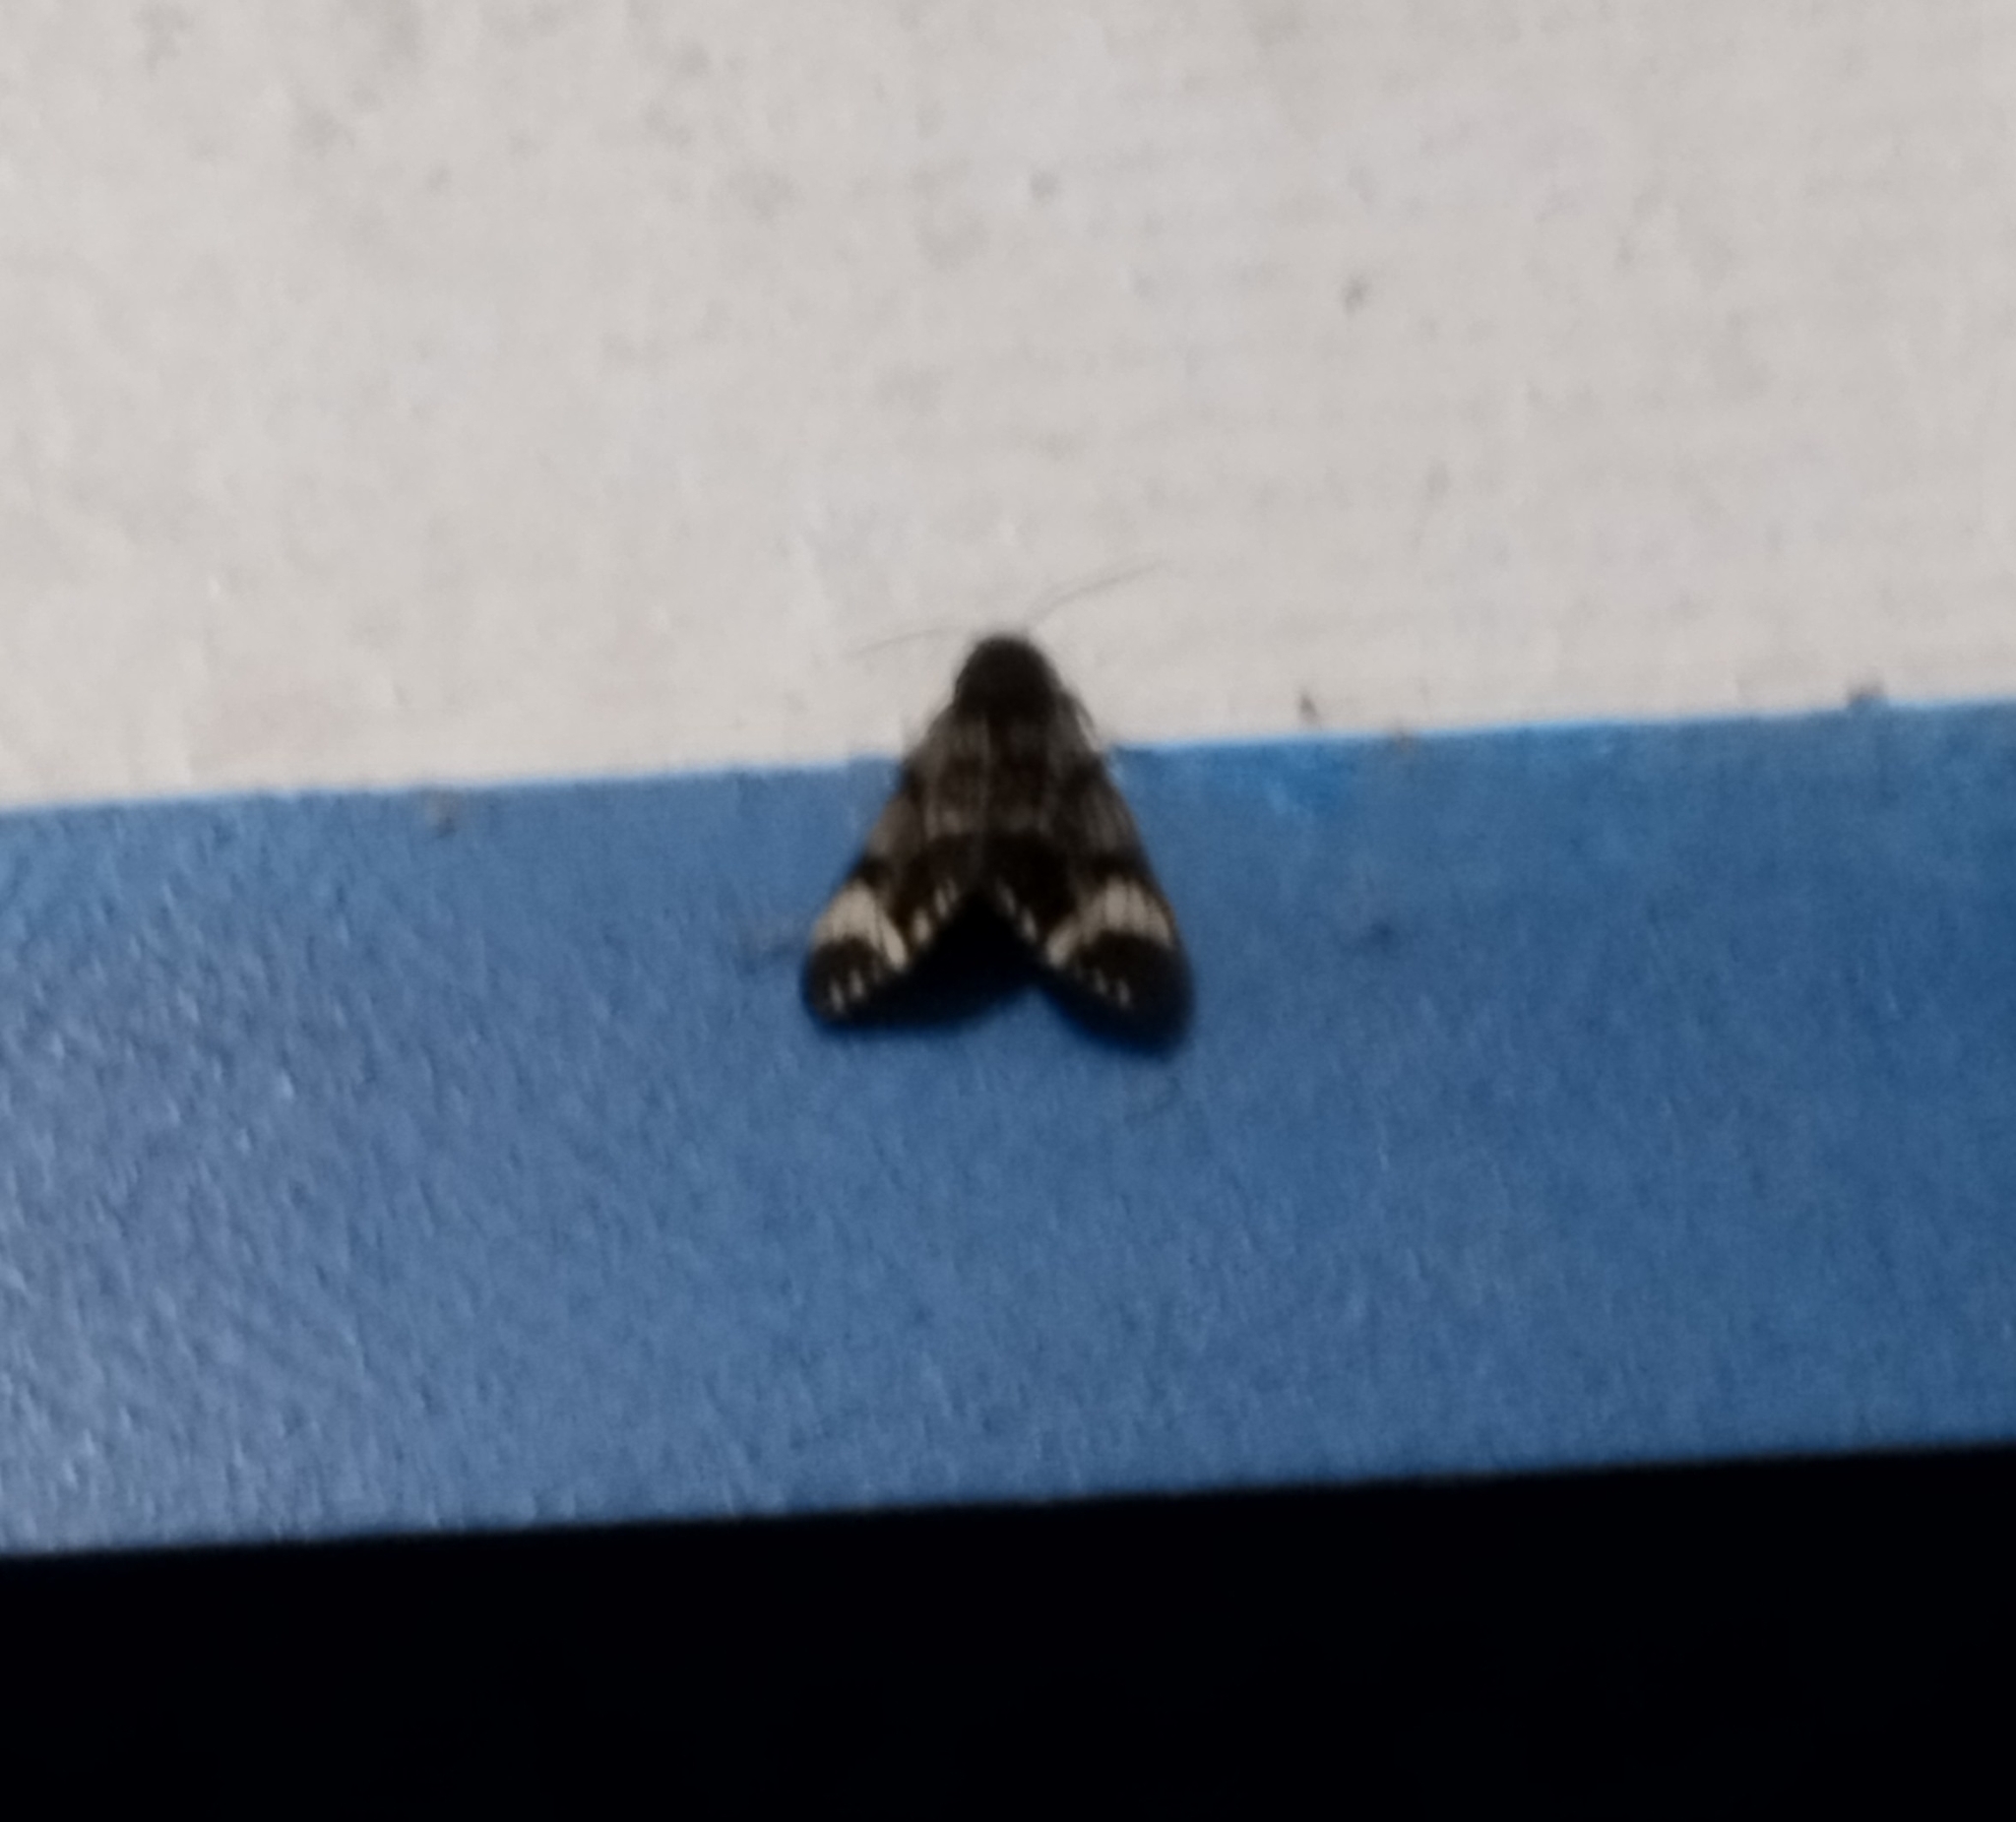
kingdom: Animalia
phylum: Arthropoda
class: Insecta
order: Lepidoptera
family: Erebidae
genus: Dysschema
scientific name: Dysschema hilara
